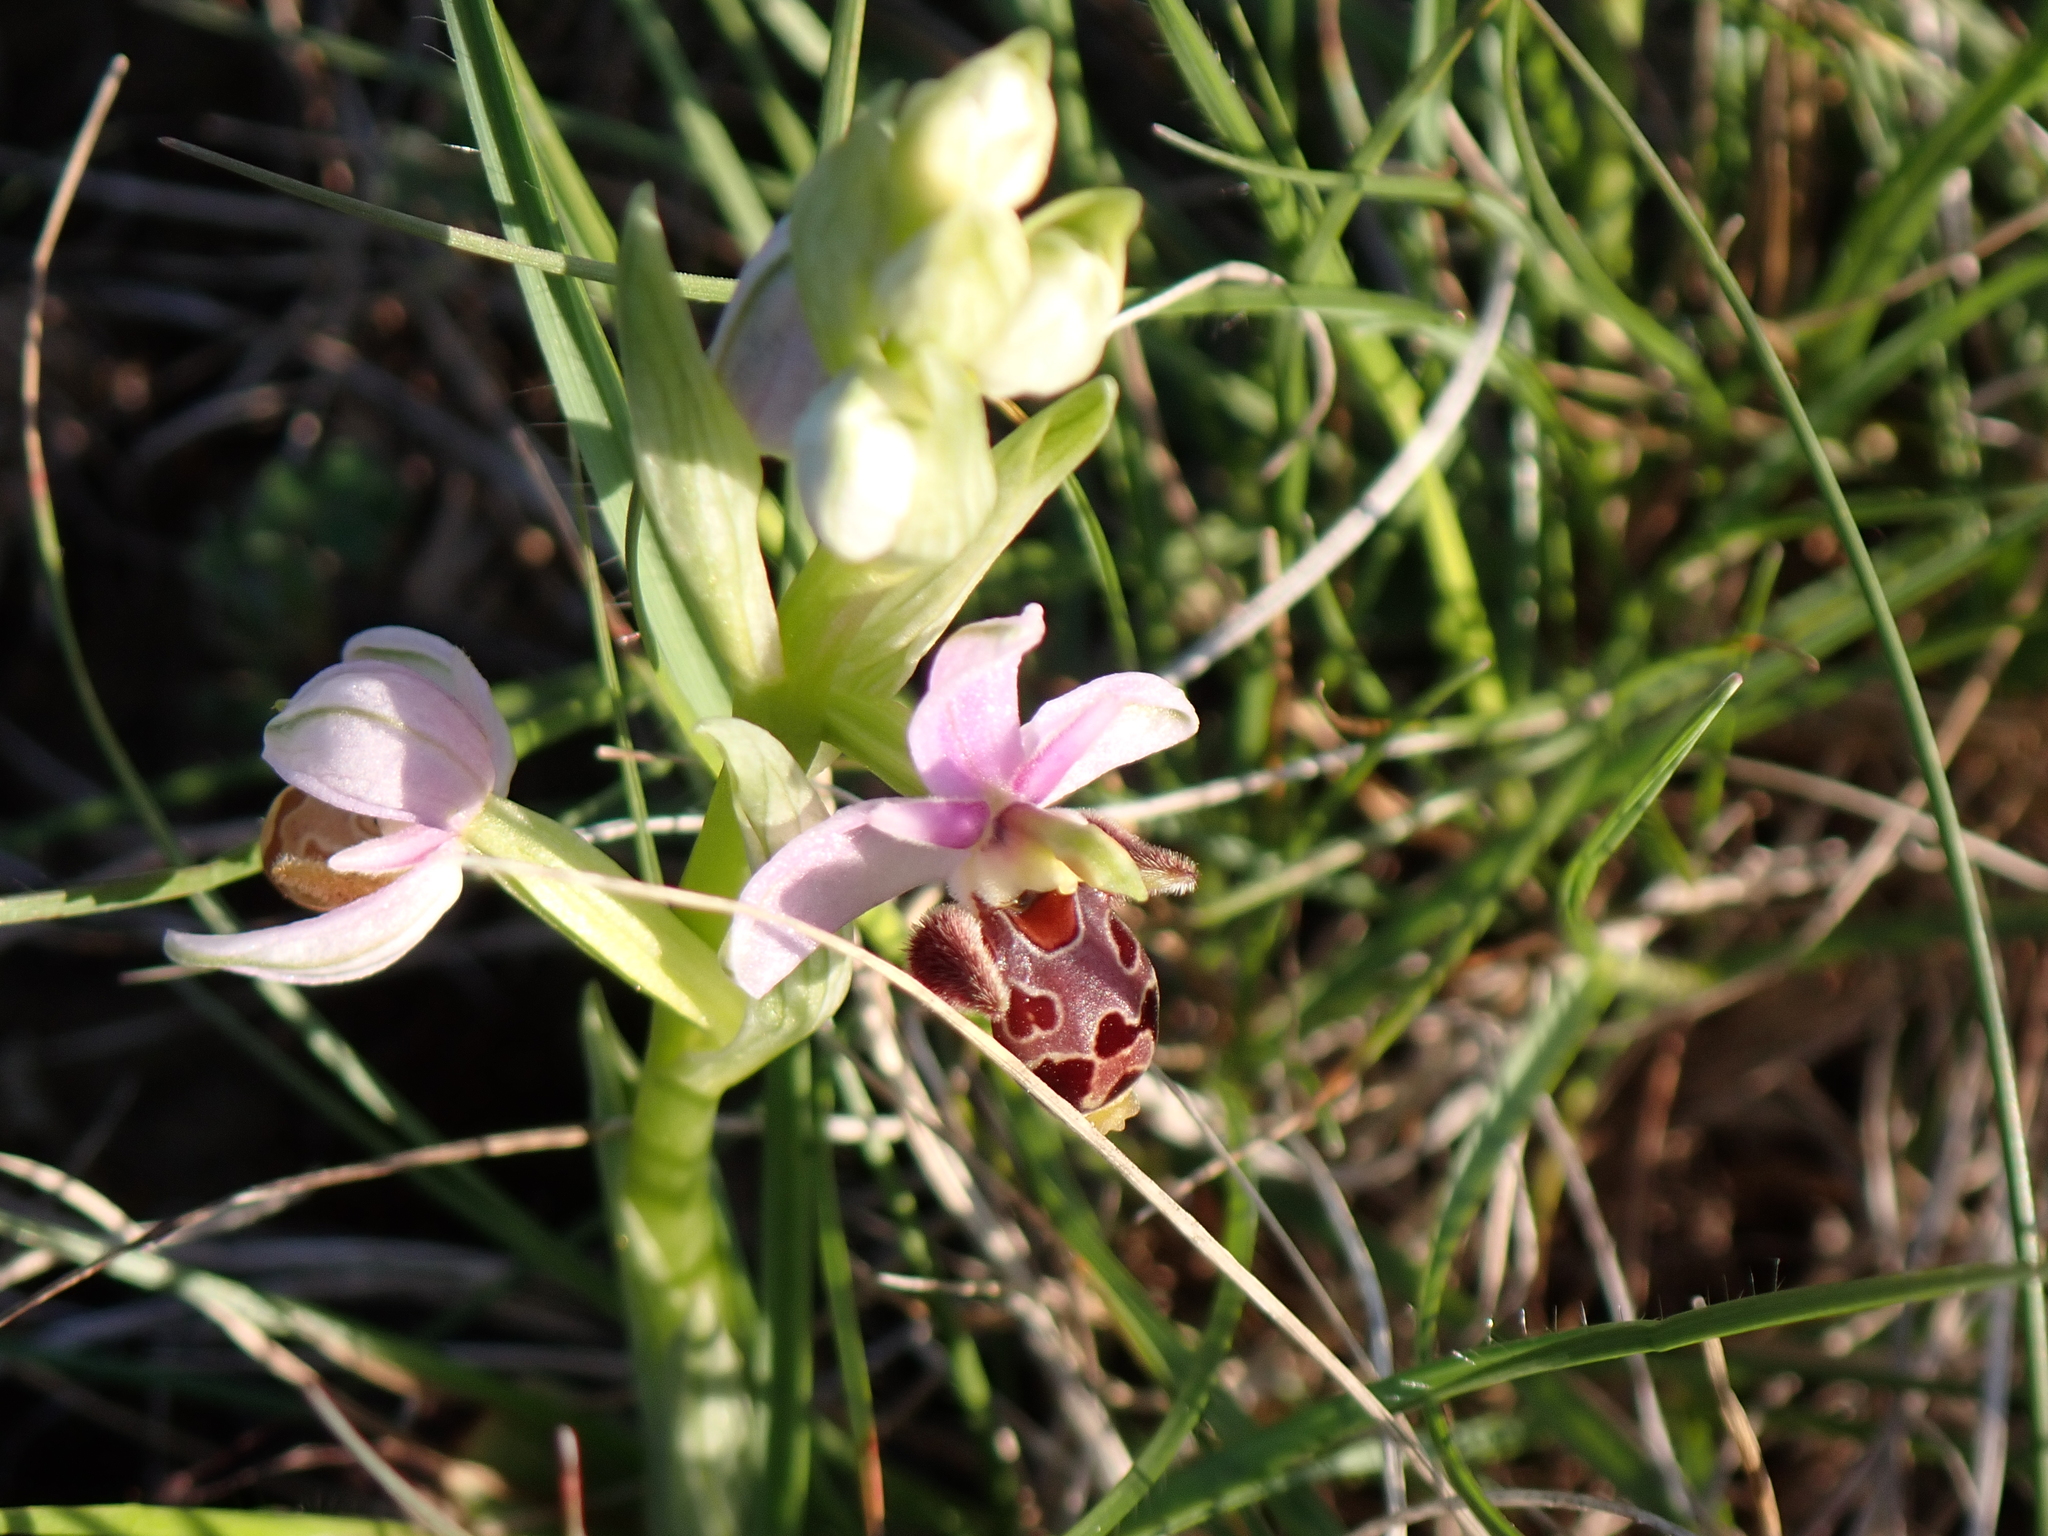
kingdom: Plantae
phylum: Tracheophyta
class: Liliopsida
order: Asparagales
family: Orchidaceae
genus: Ophrys
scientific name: Ophrys scolopax
